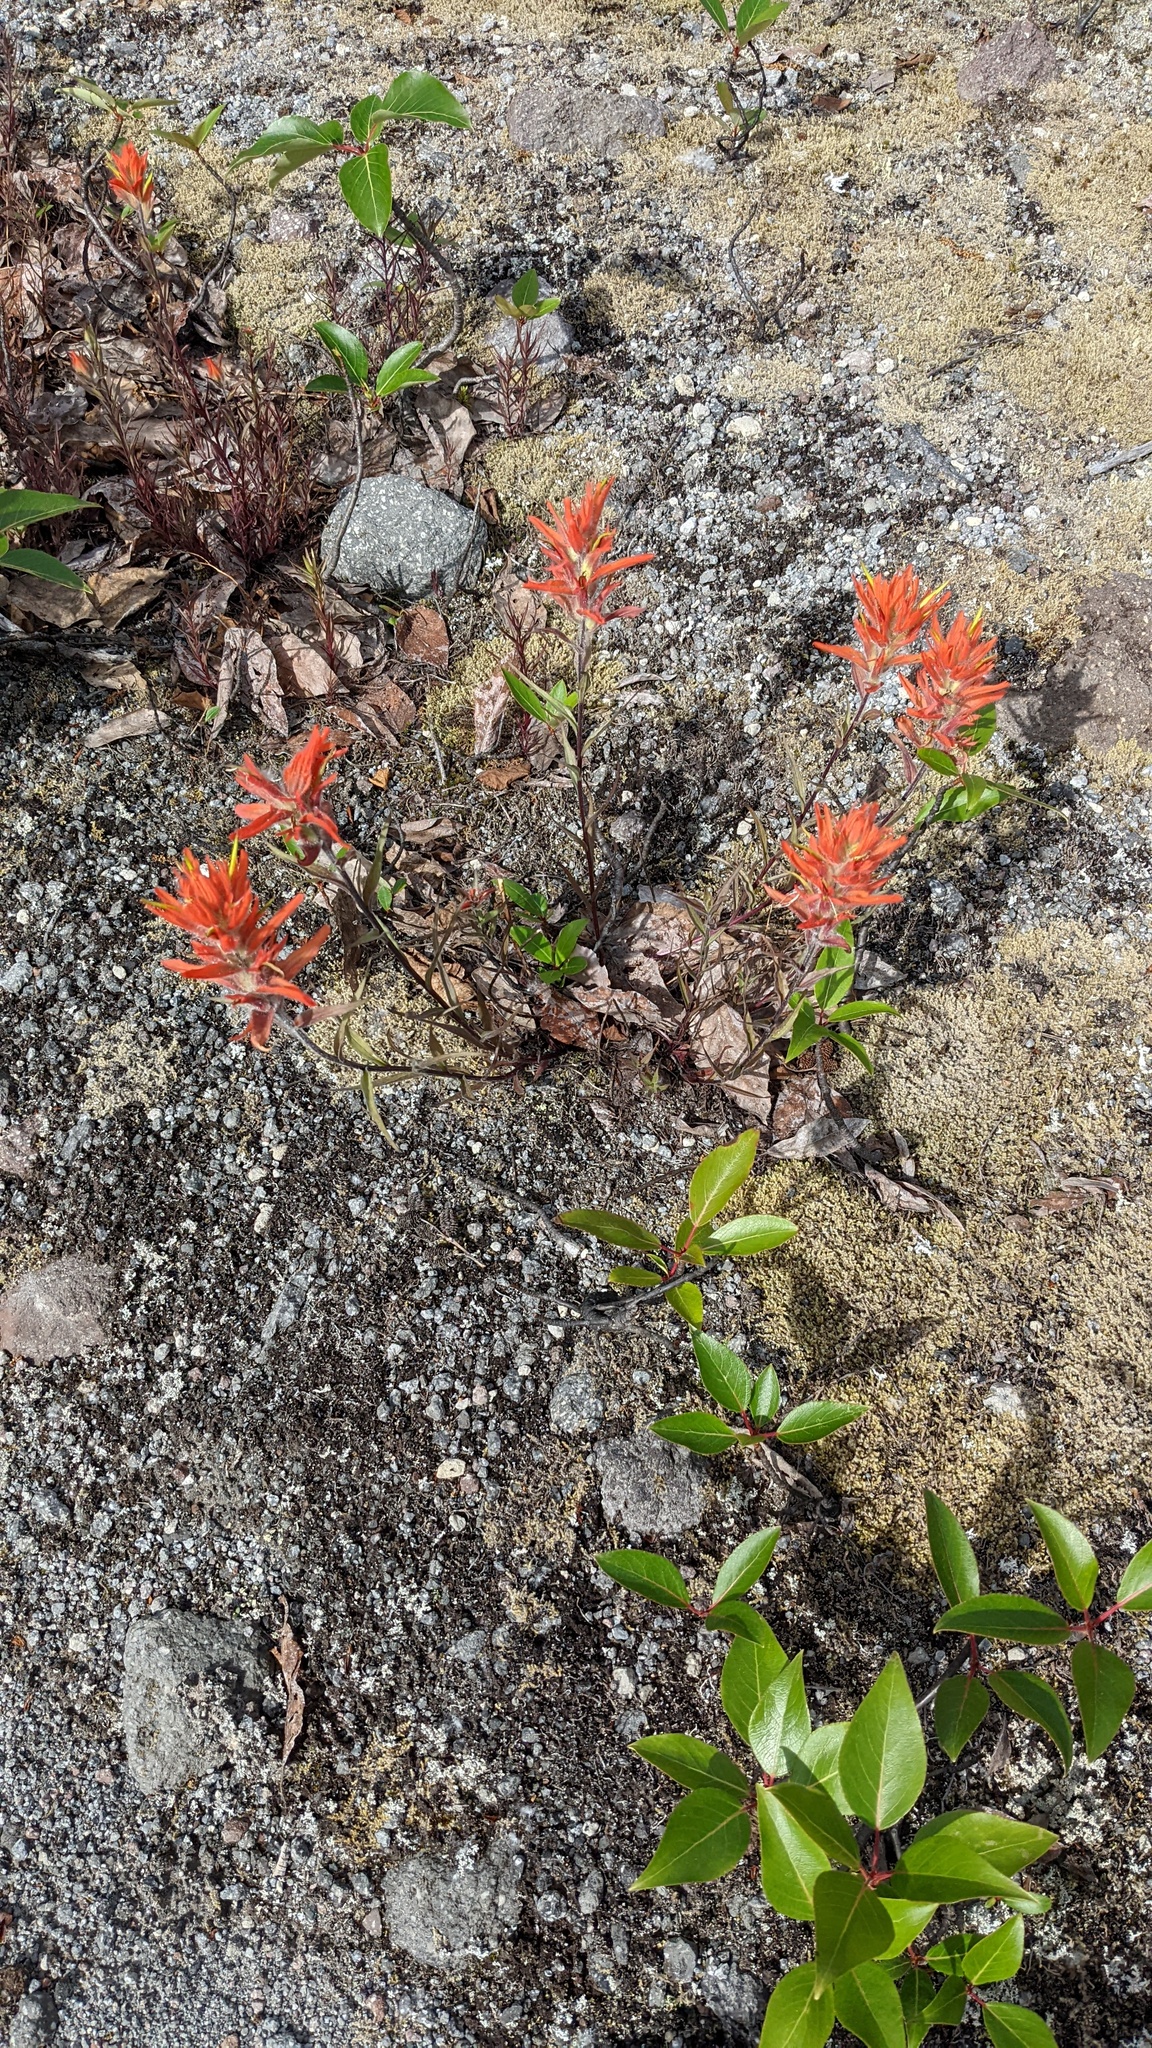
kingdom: Plantae
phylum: Tracheophyta
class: Magnoliopsida
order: Lamiales
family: Orobanchaceae
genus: Castilleja
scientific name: Castilleja miniata
